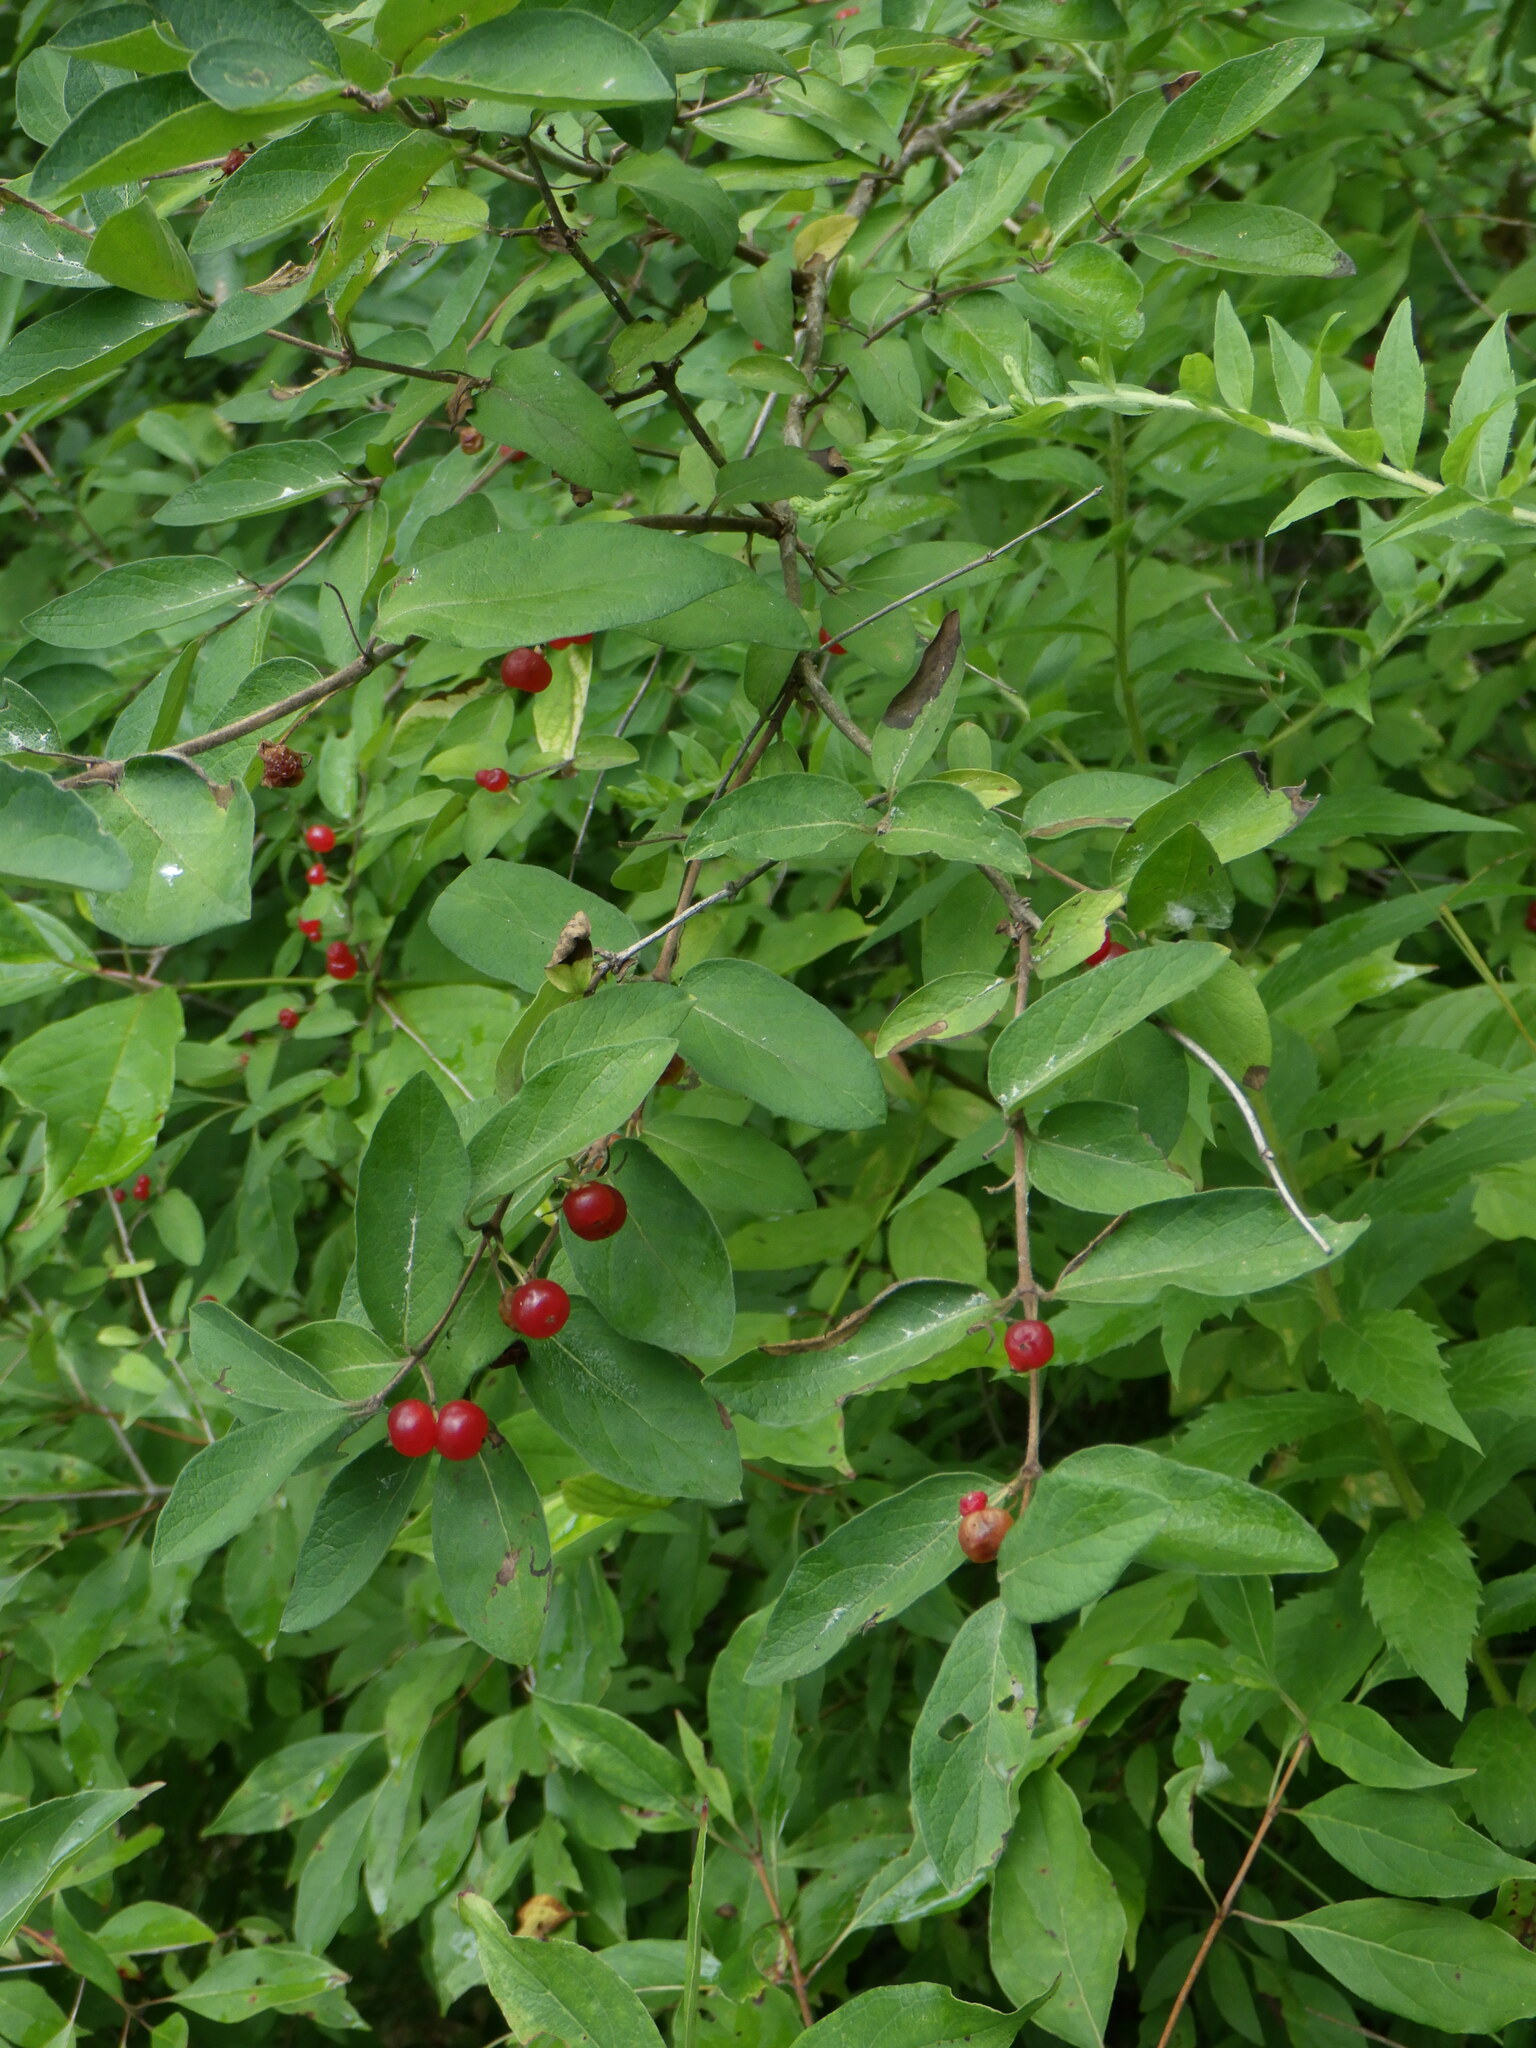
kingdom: Plantae
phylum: Tracheophyta
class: Magnoliopsida
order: Dipsacales
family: Caprifoliaceae
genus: Lonicera
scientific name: Lonicera
